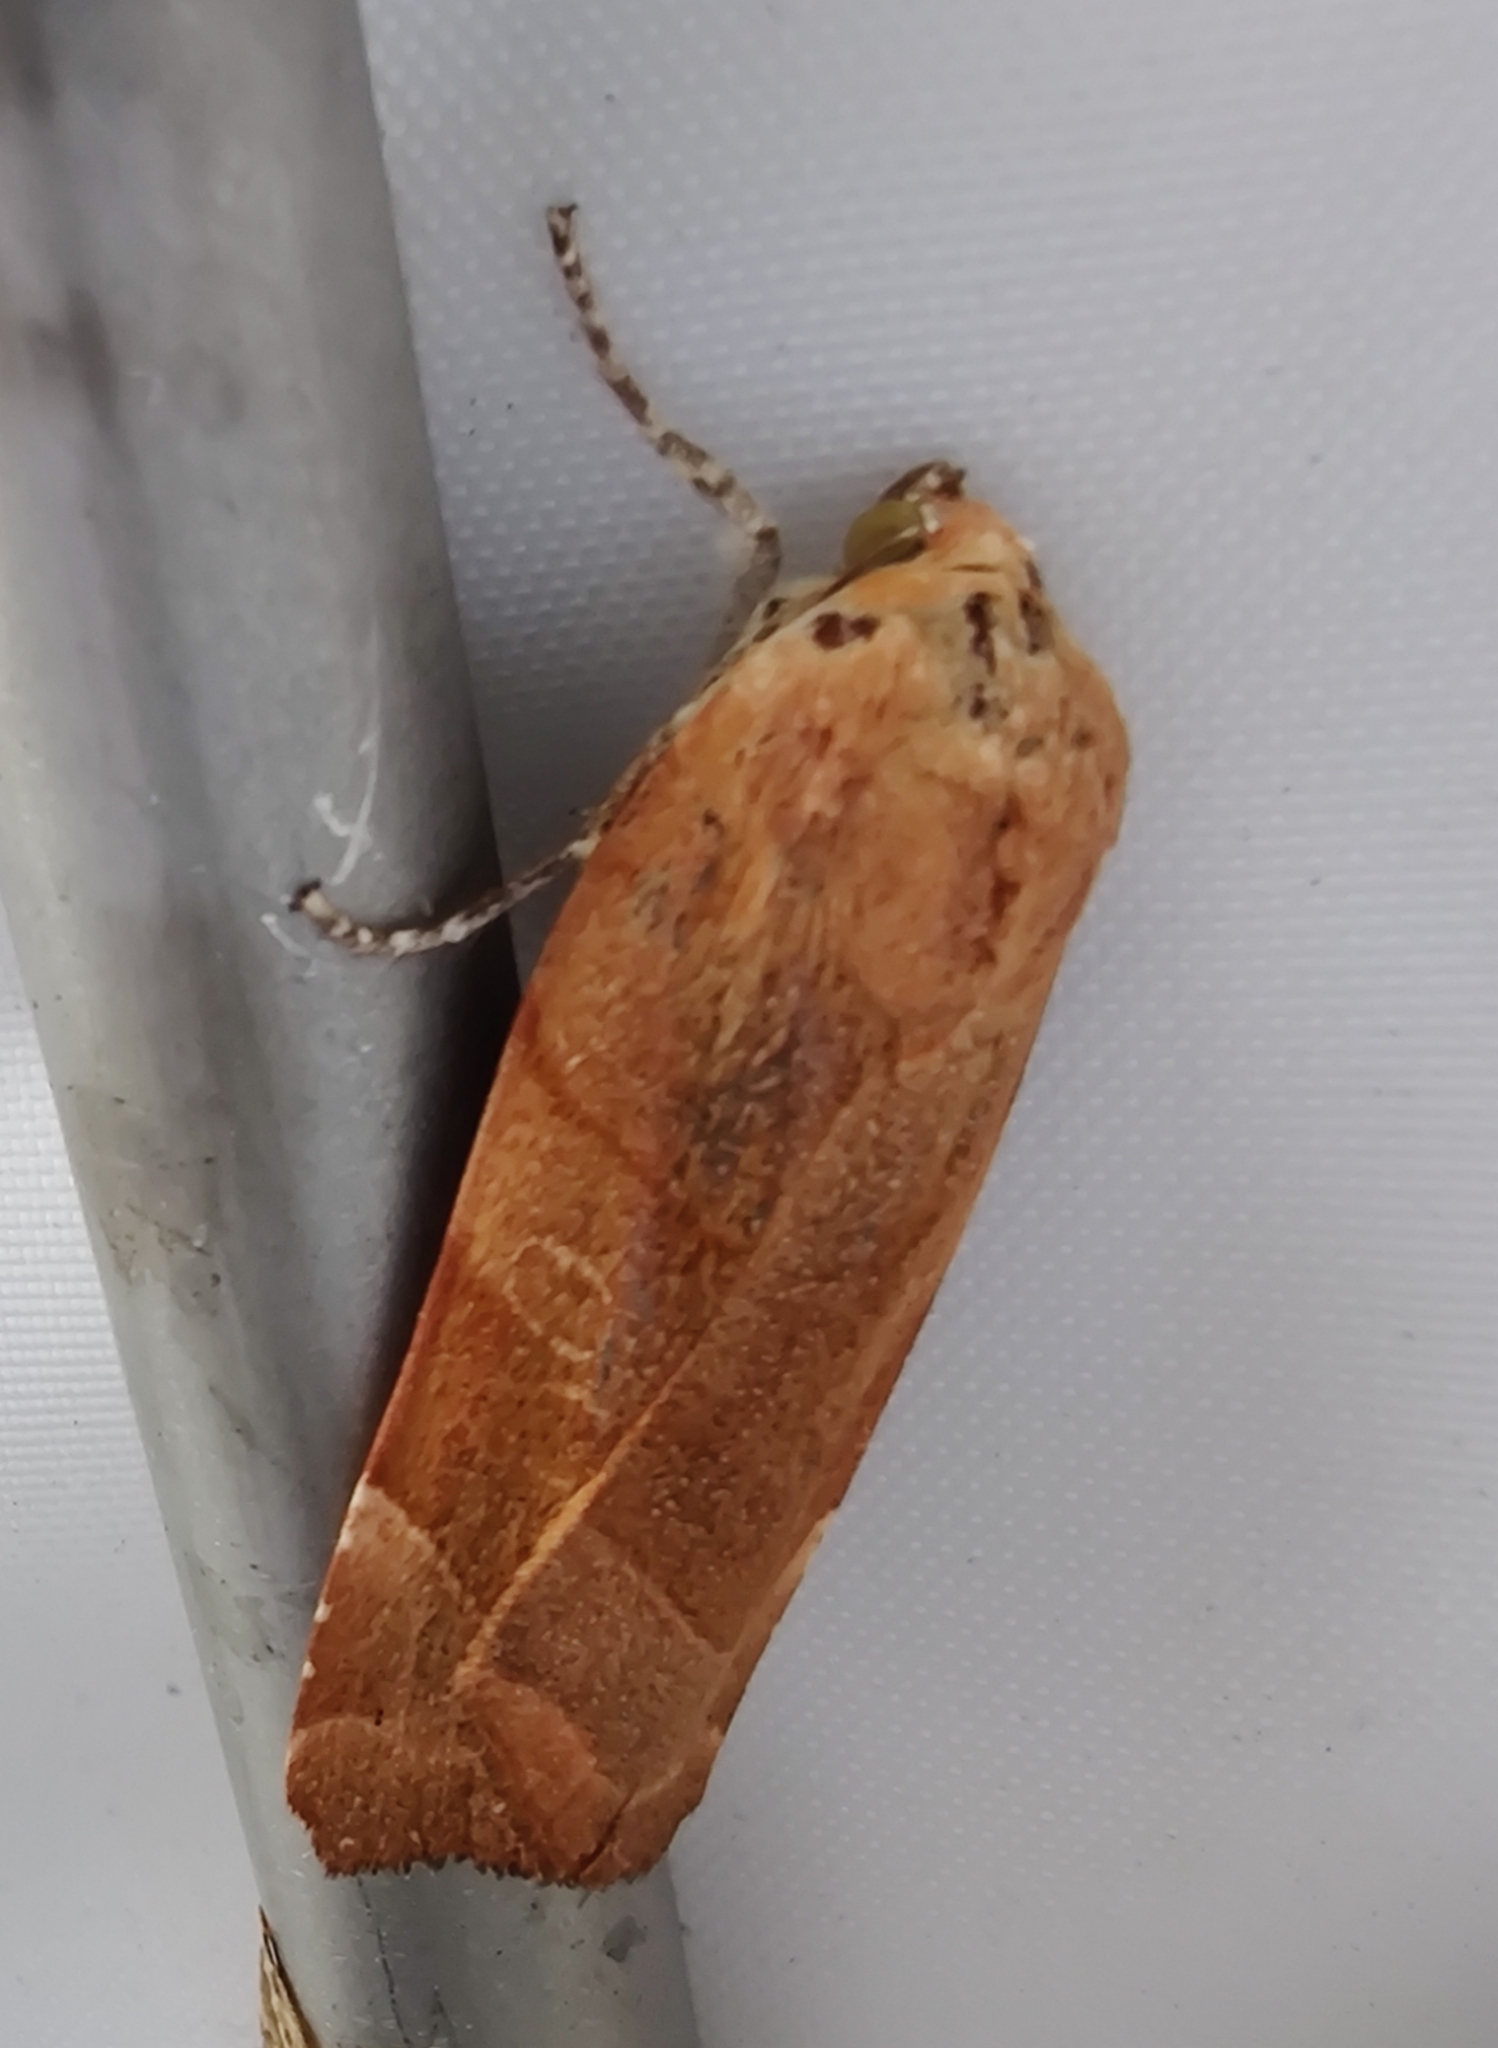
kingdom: Animalia
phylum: Arthropoda
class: Insecta
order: Lepidoptera
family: Noctuidae
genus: Noctua
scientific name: Noctua fimbriata
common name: Broad-bordered yellow underwing
